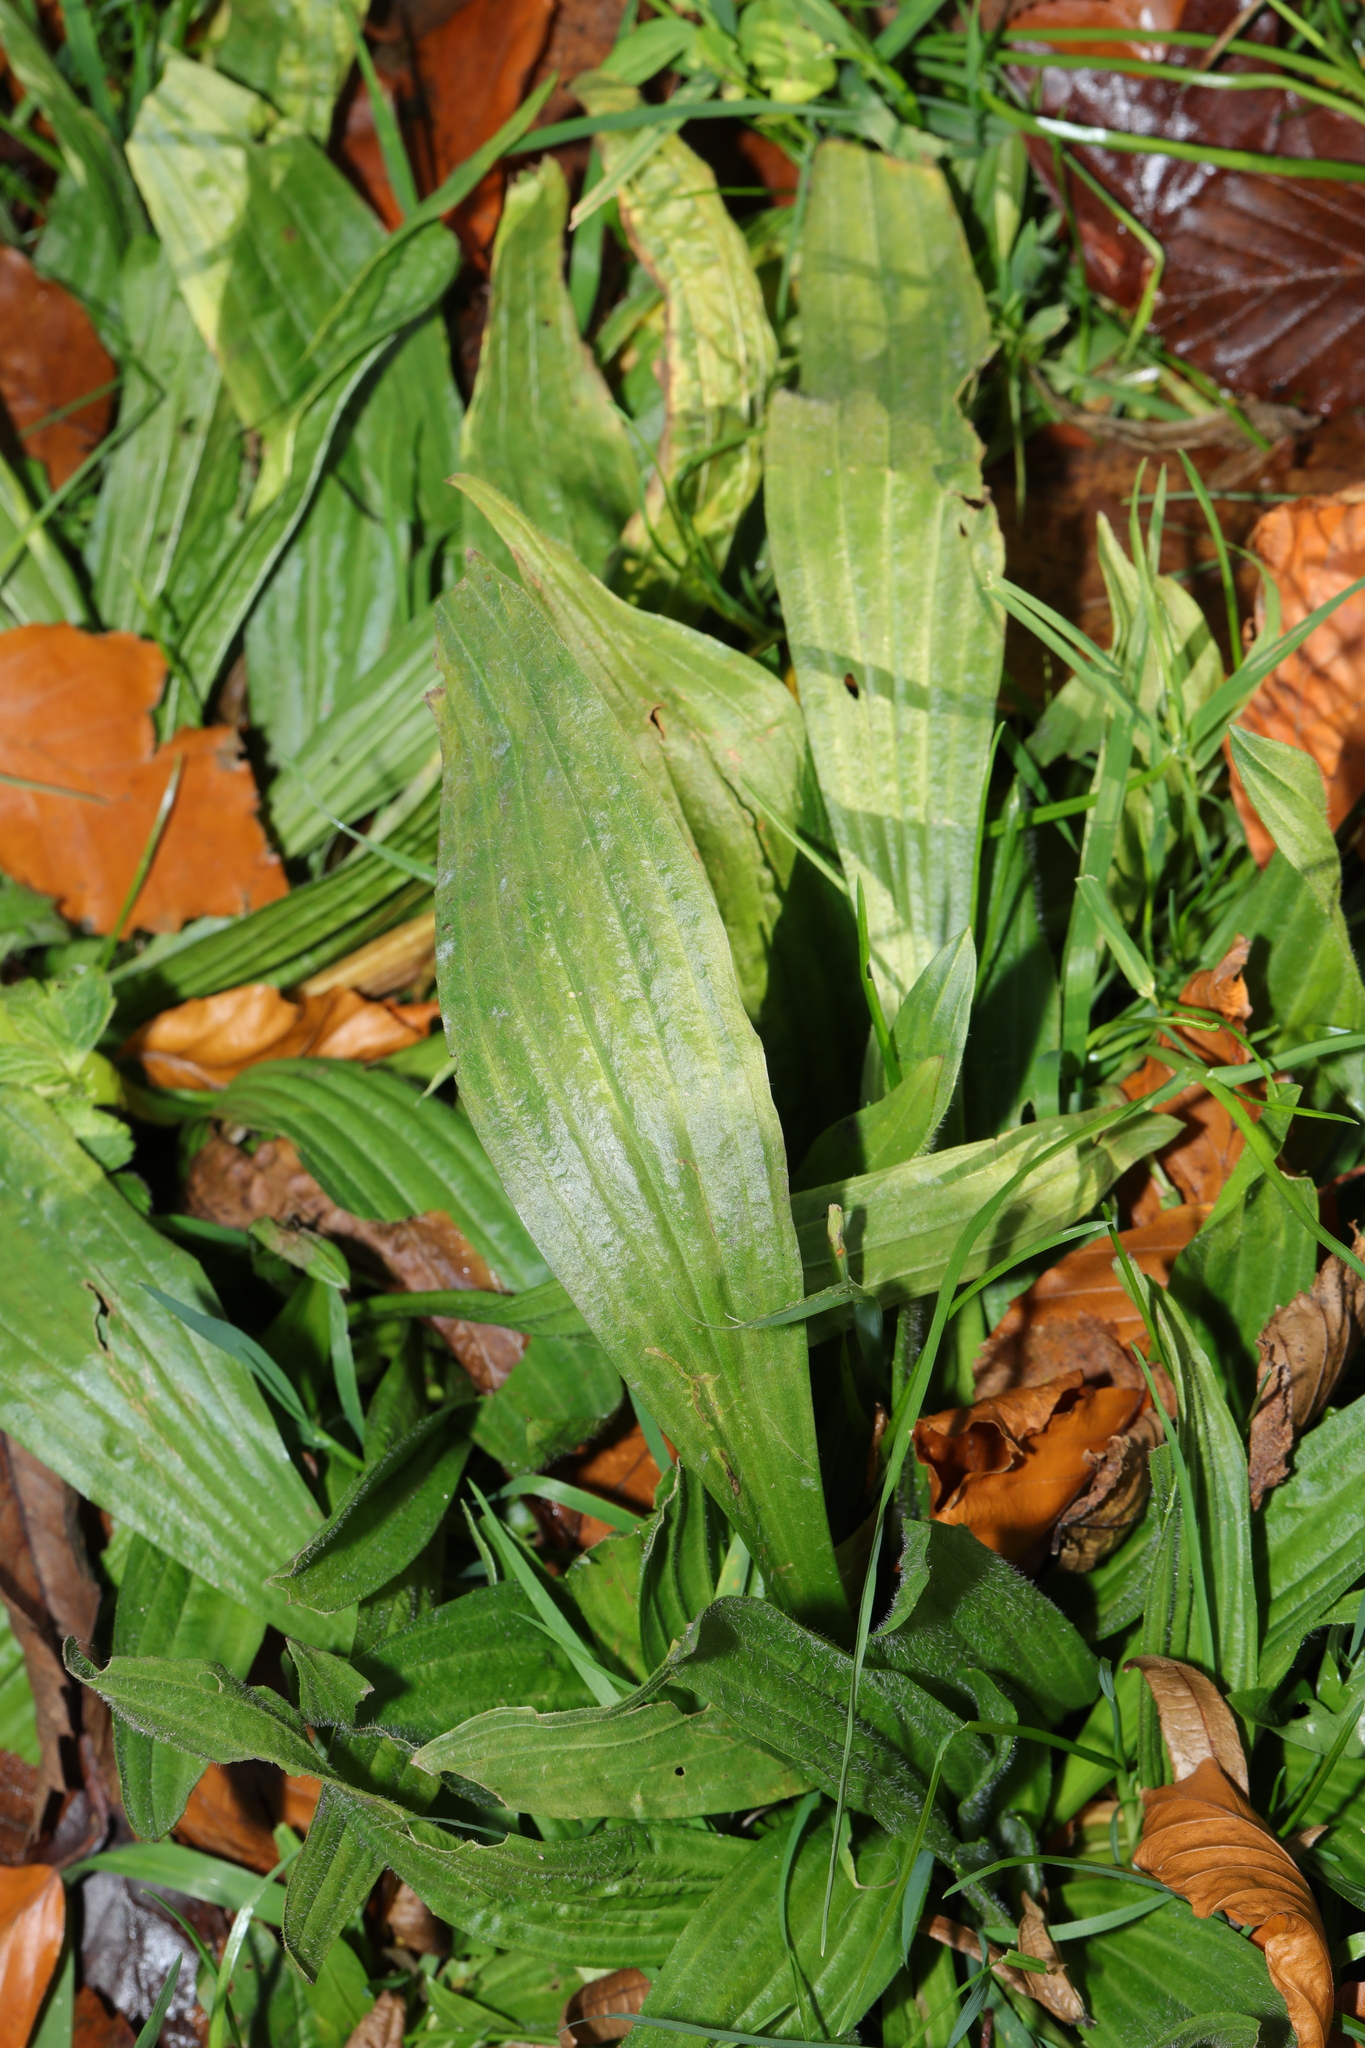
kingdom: Plantae
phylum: Tracheophyta
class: Magnoliopsida
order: Lamiales
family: Plantaginaceae
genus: Plantago
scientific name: Plantago lanceolata
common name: Ribwort plantain
